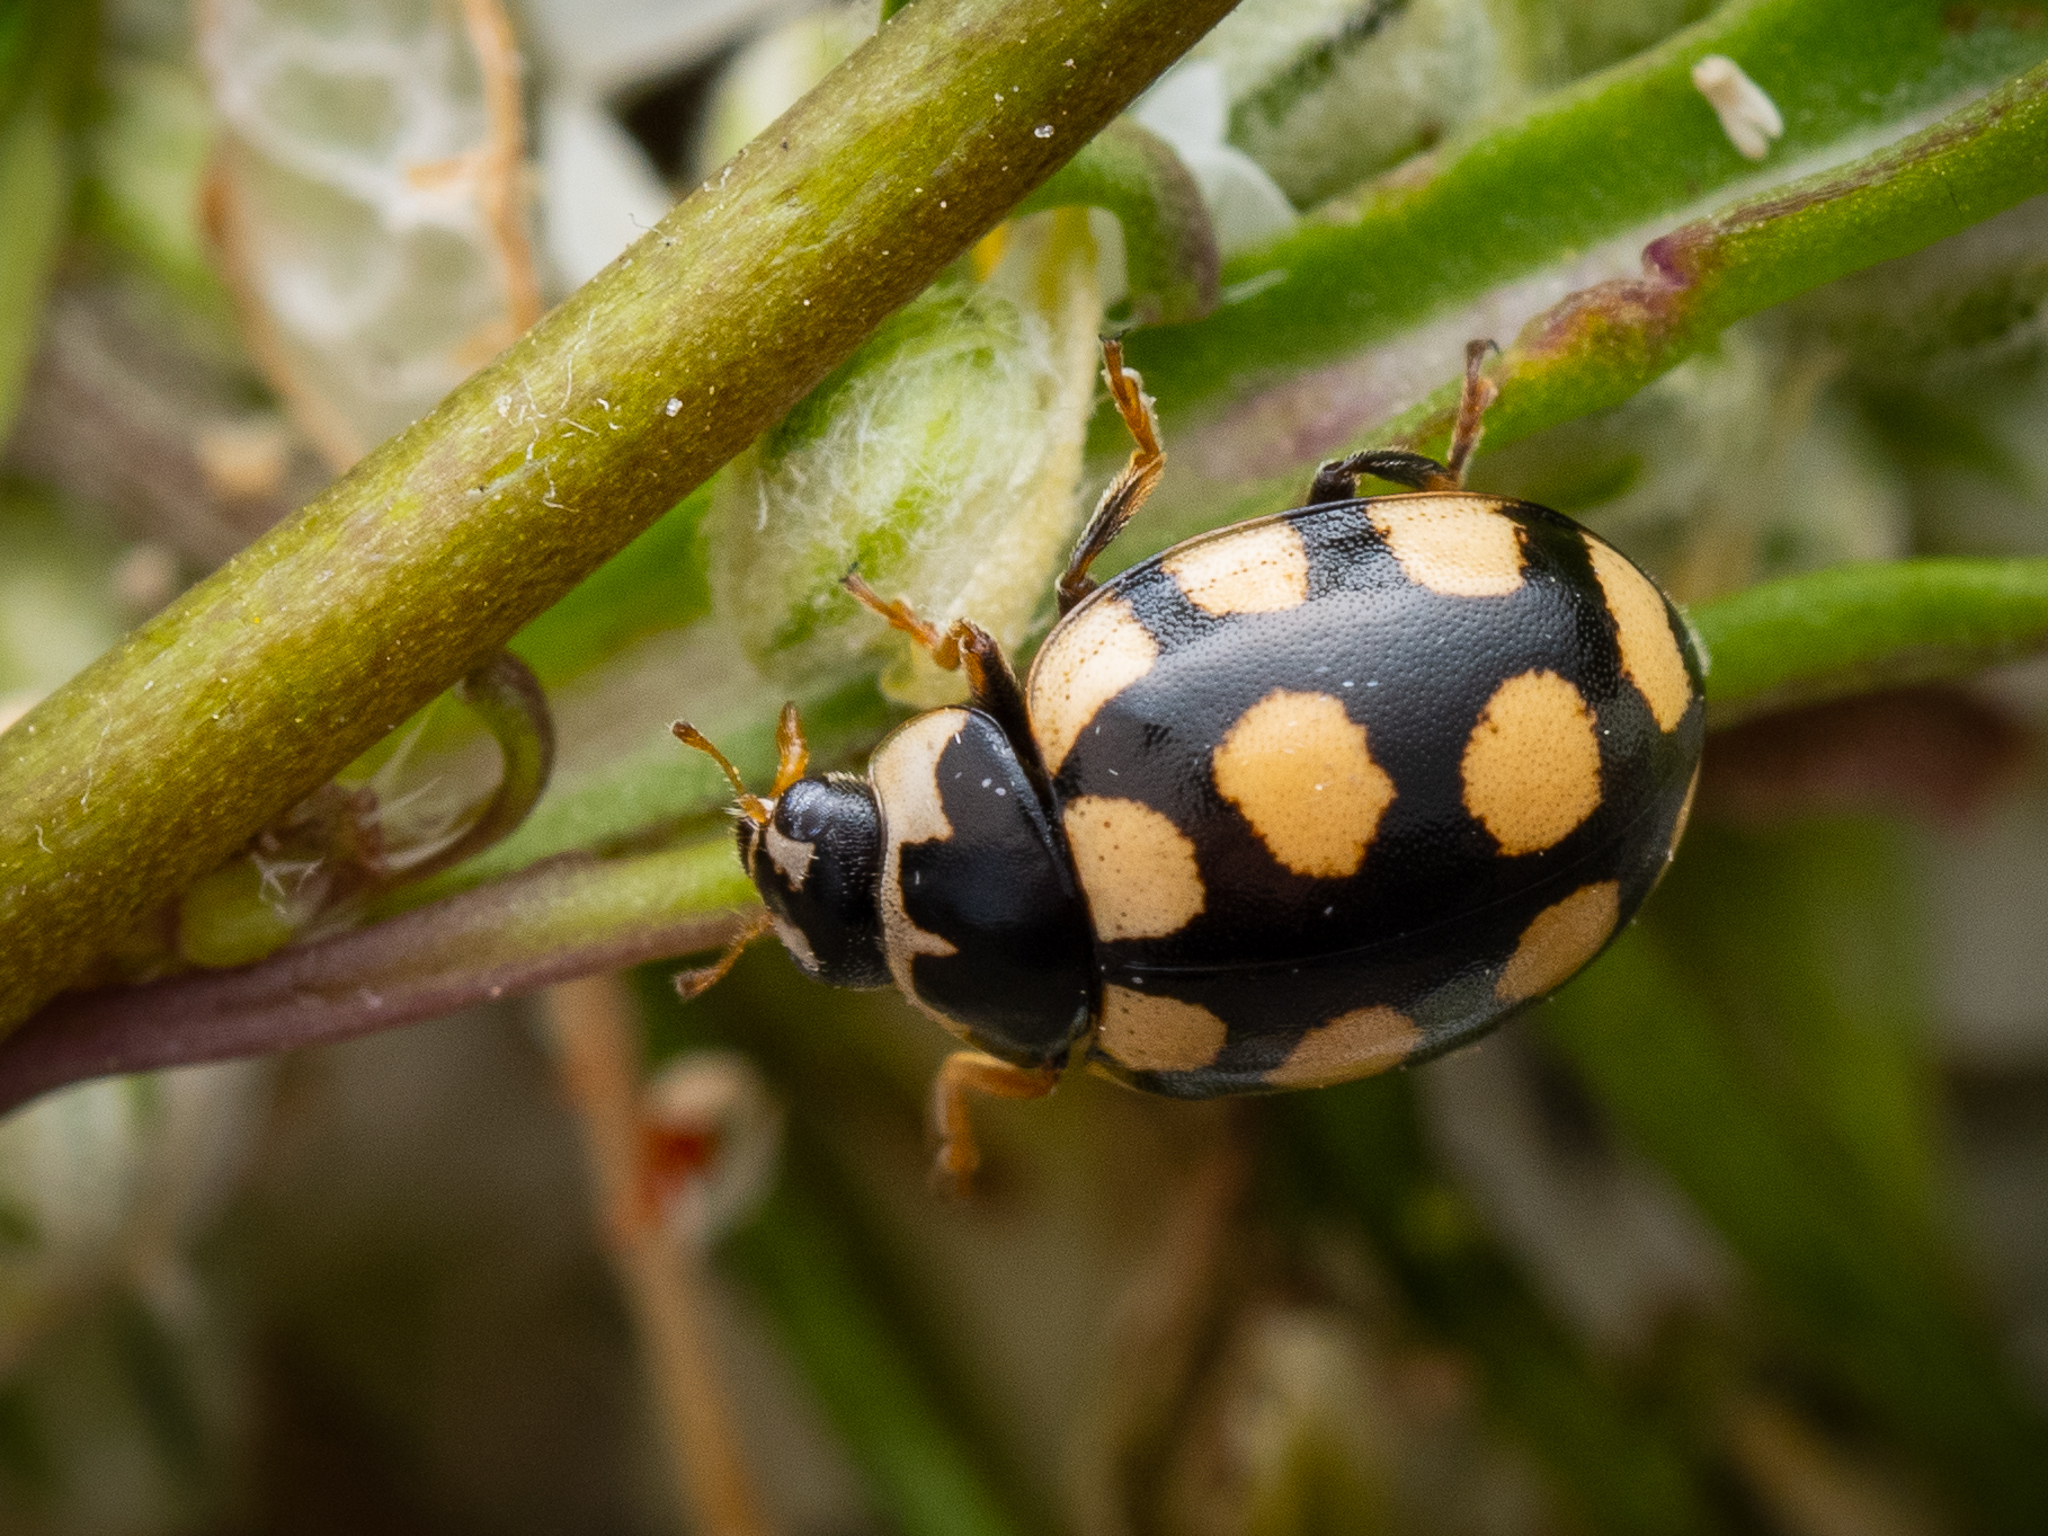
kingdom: Animalia
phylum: Arthropoda
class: Insecta
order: Coleoptera
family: Coccinellidae
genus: Coccinula
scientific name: Coccinula quatuordecimpustulata
